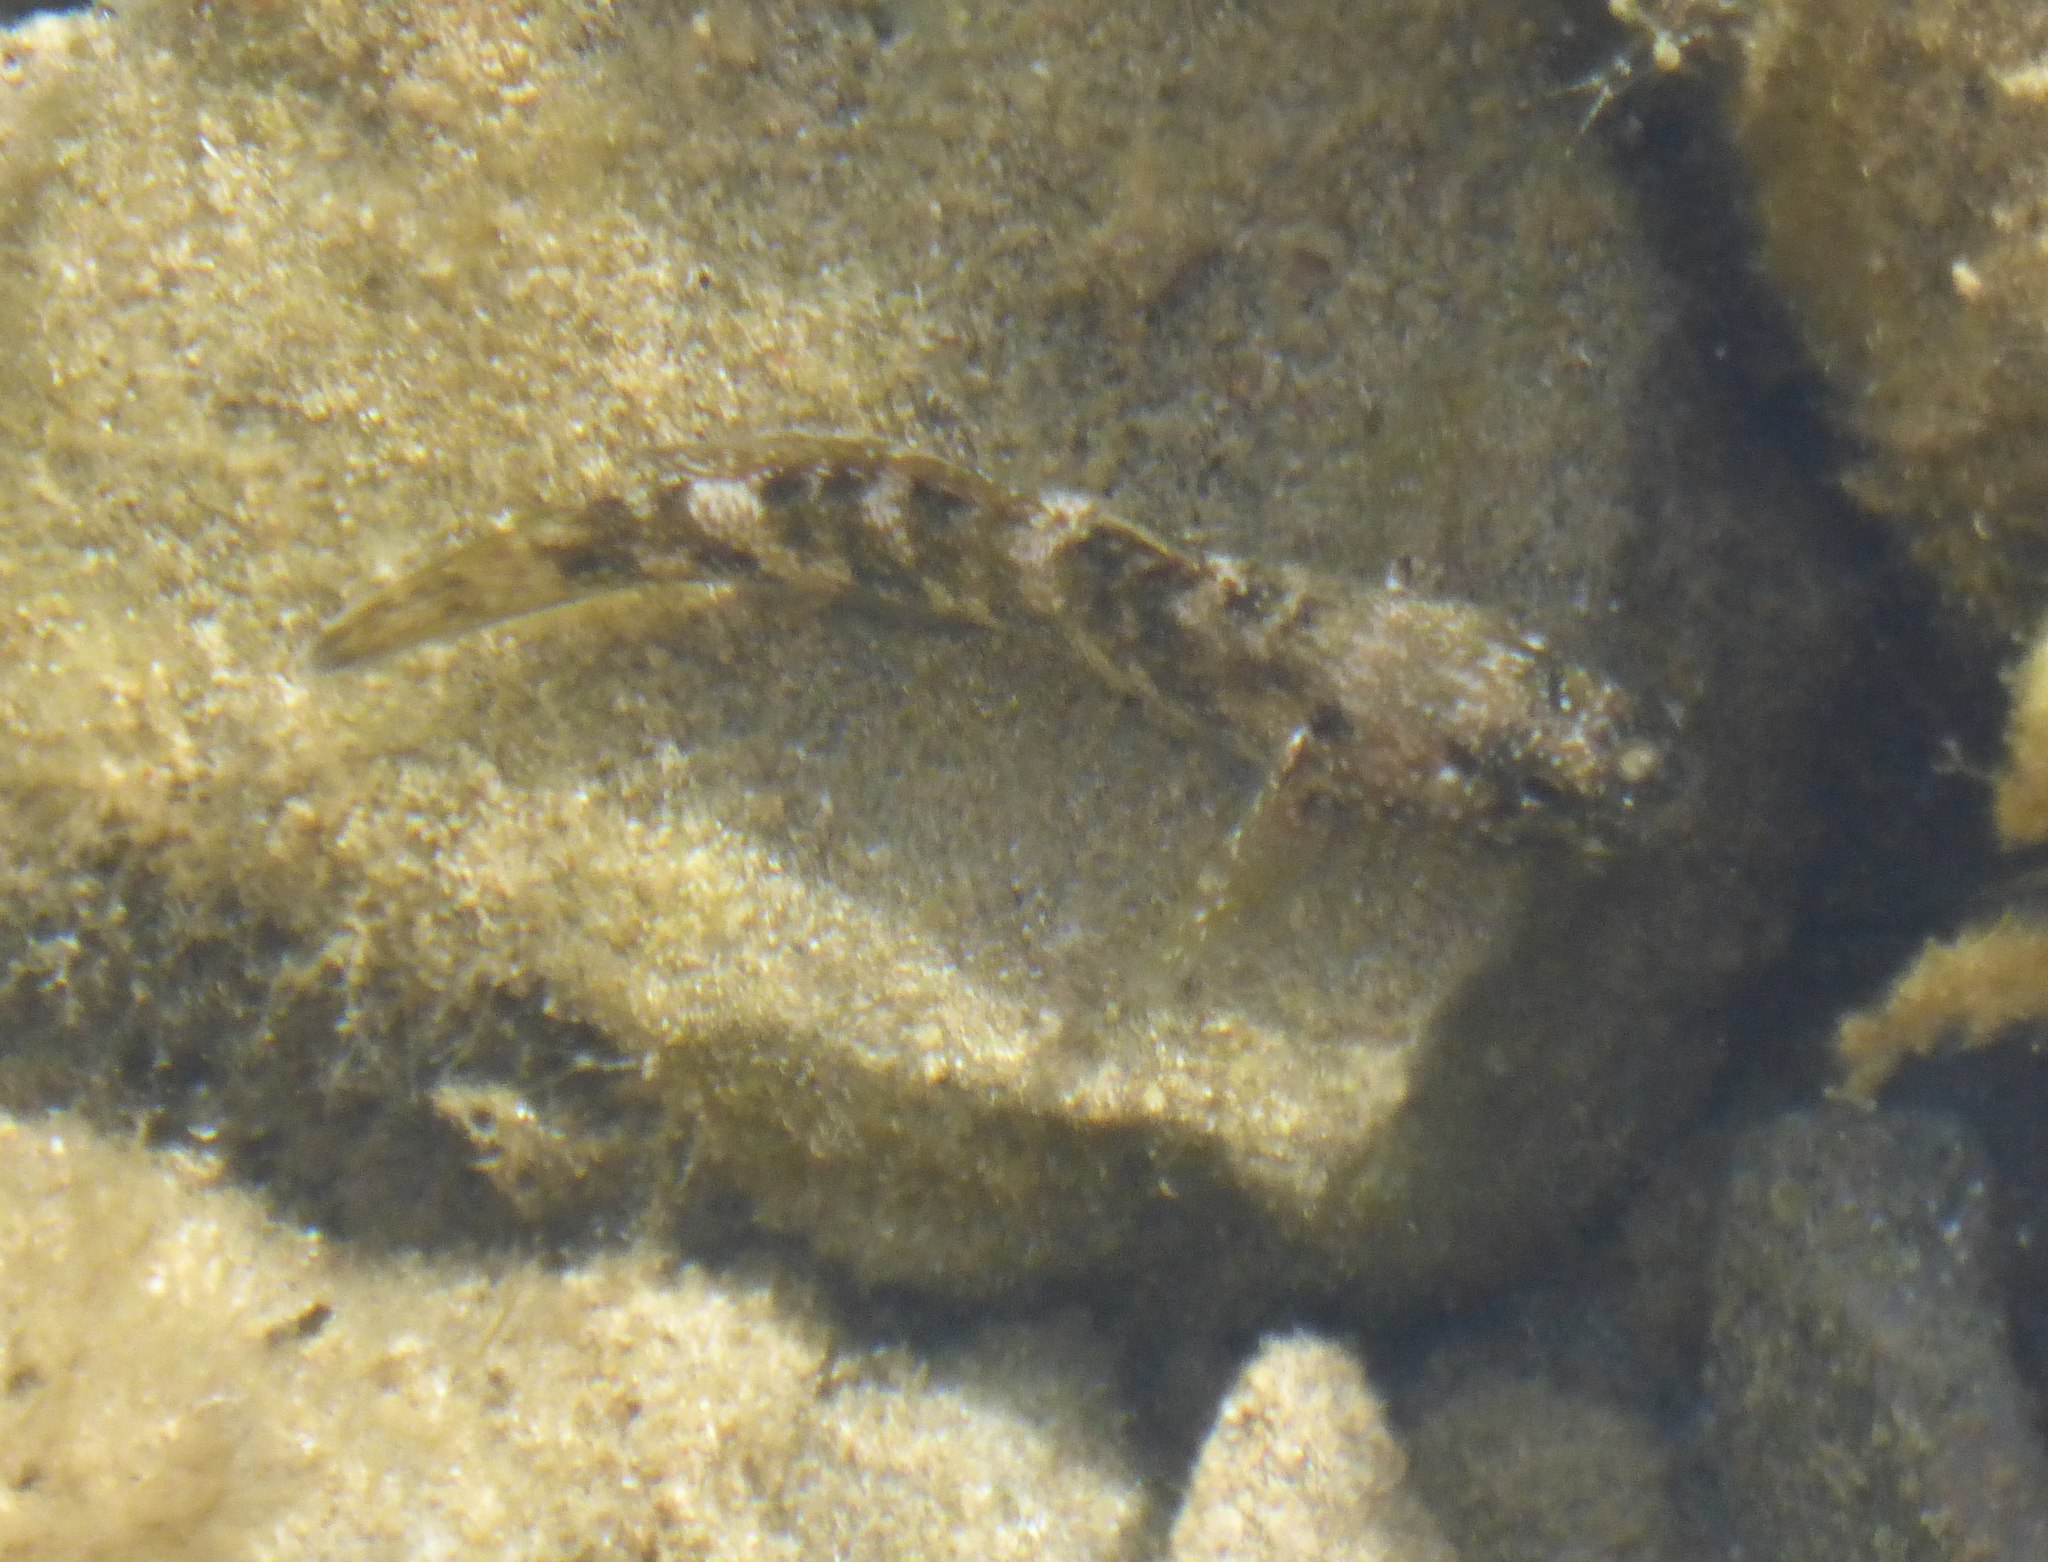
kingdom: Animalia
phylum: Chordata
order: Perciformes
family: Gobiidae
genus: Mauligobius
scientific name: Mauligobius maderensis
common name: Rock goby
